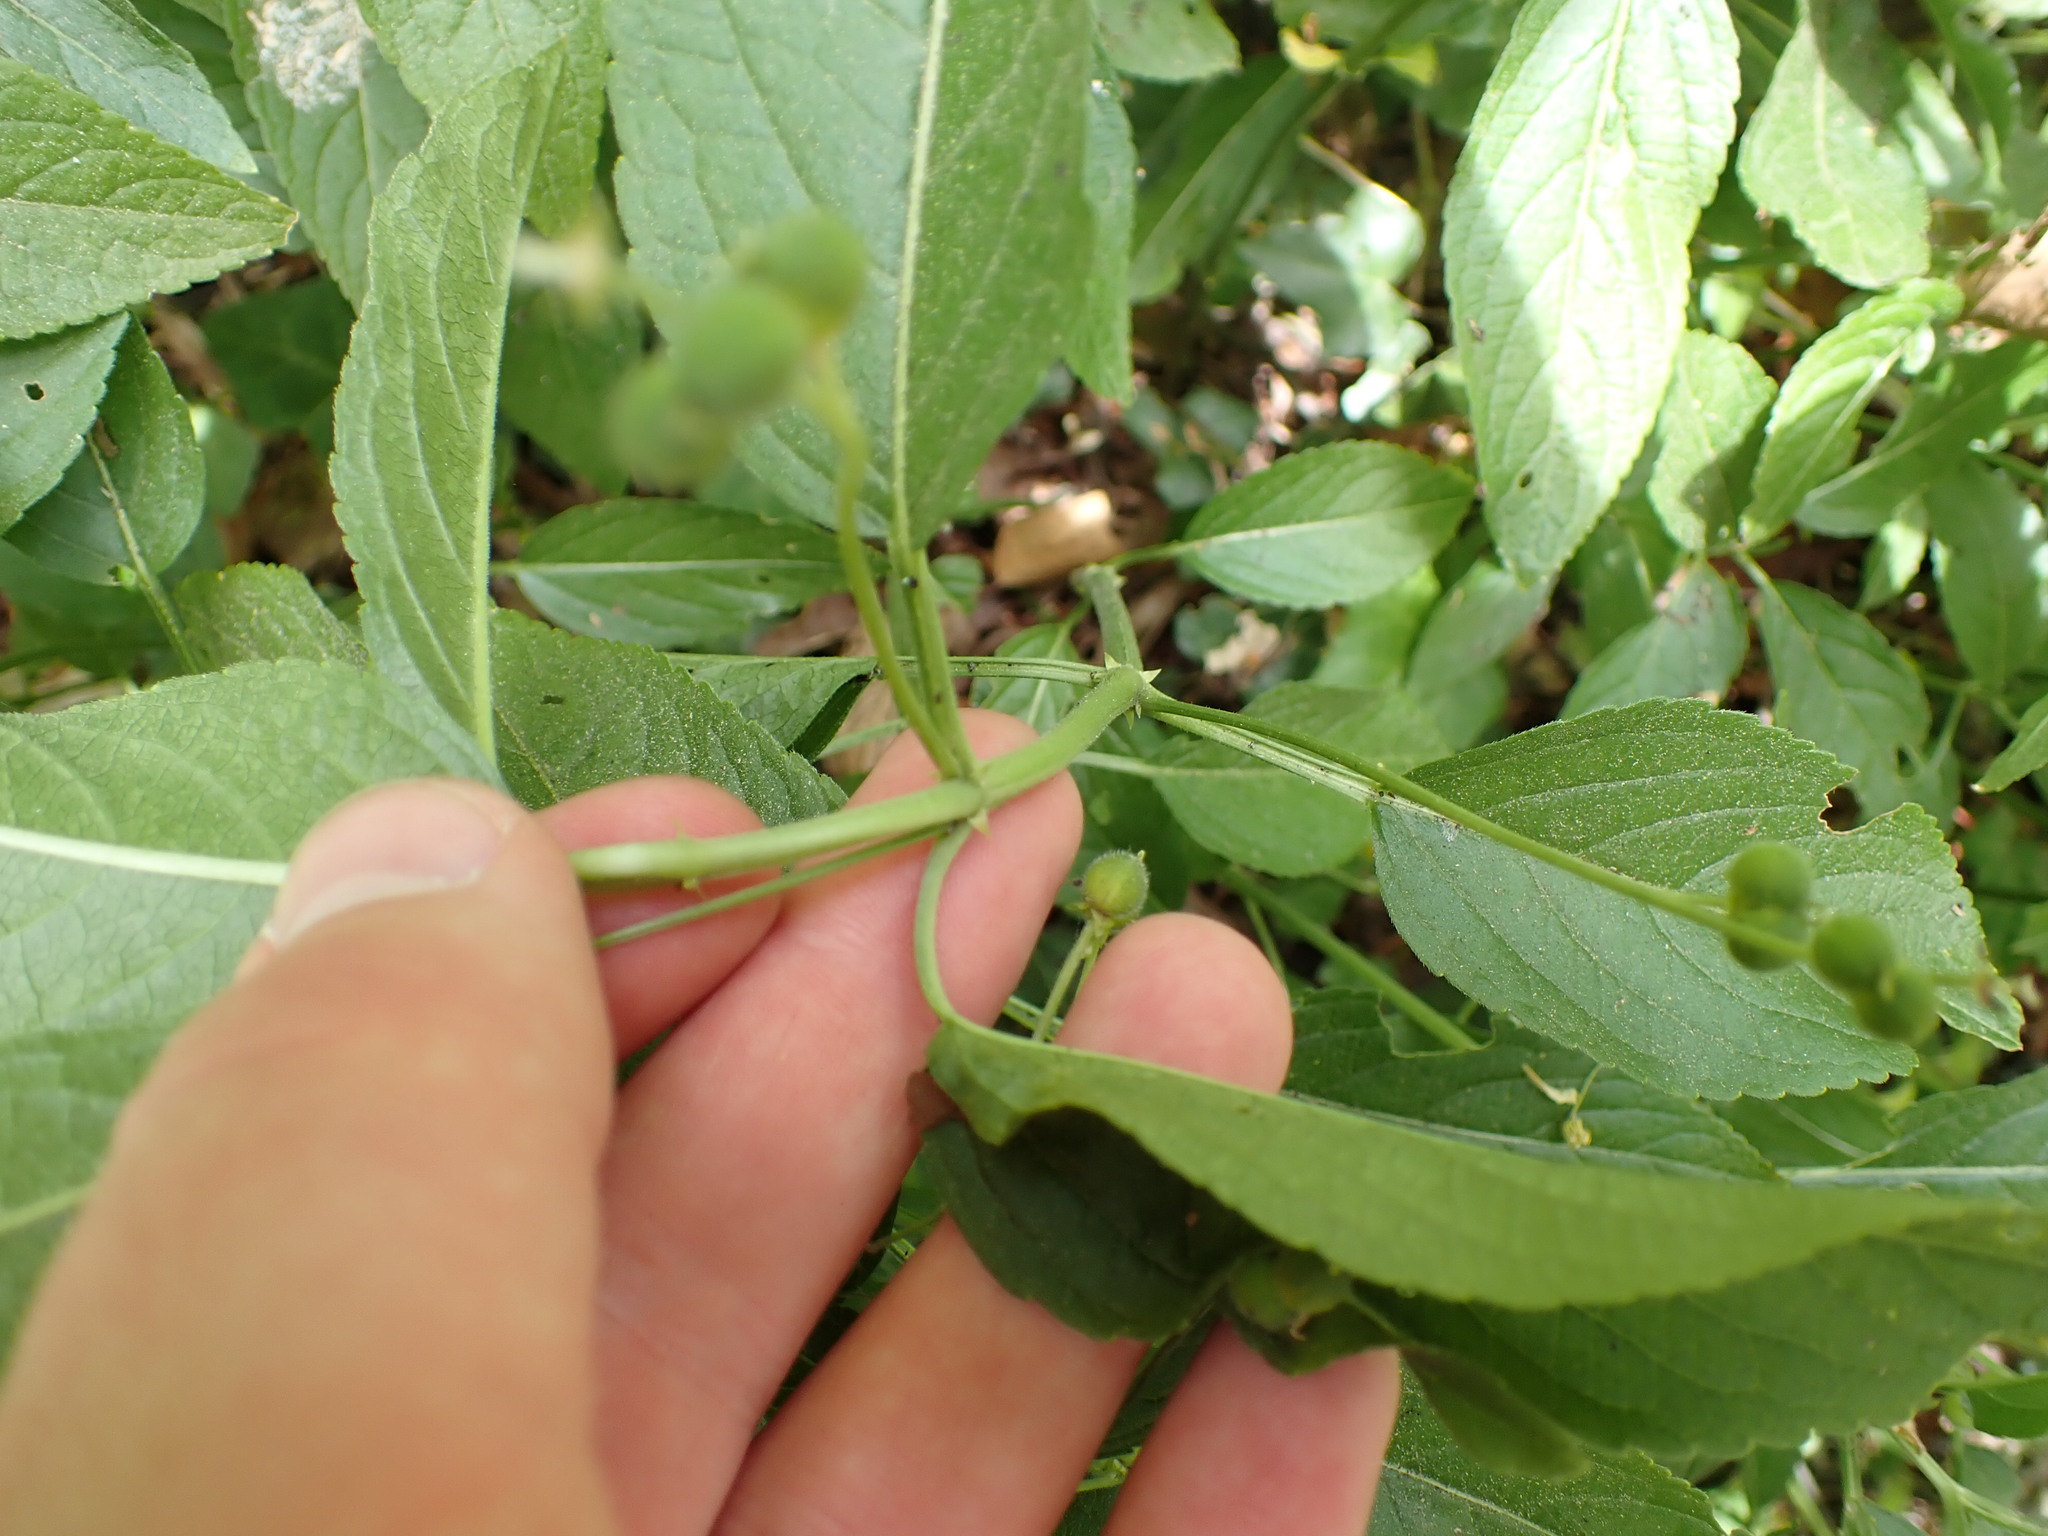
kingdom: Plantae
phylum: Tracheophyta
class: Magnoliopsida
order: Malpighiales
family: Euphorbiaceae
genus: Mercurialis
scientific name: Mercurialis perennis
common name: Dog mercury
